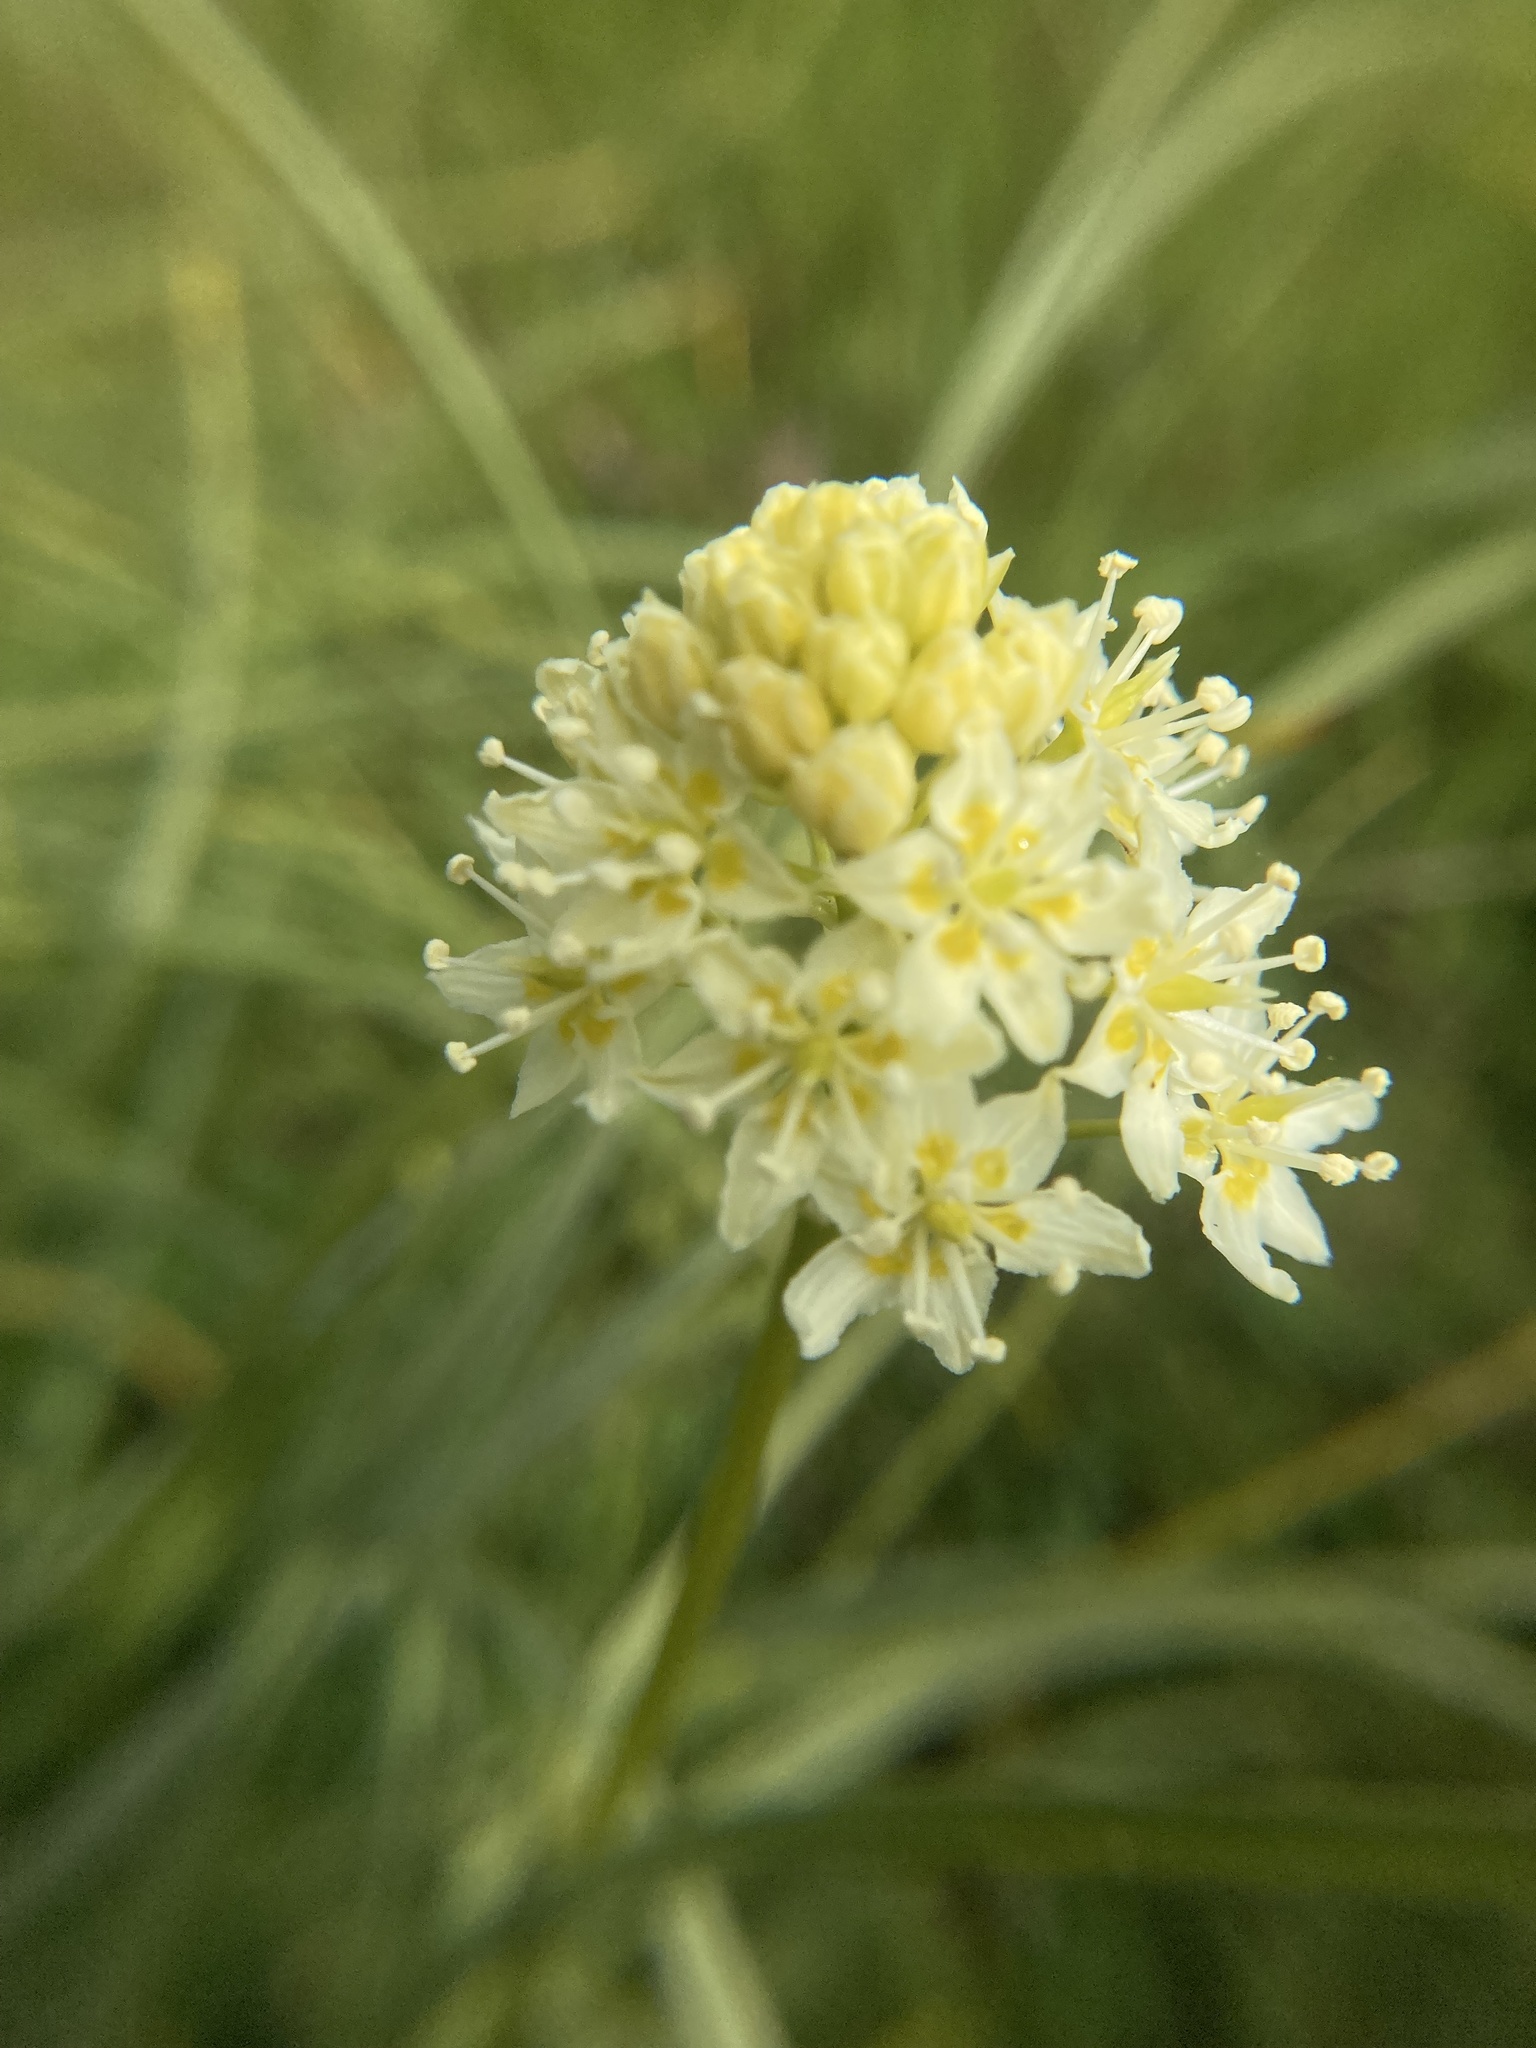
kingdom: Plantae
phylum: Tracheophyta
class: Liliopsida
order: Liliales
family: Melanthiaceae
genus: Toxicoscordion
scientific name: Toxicoscordion venenosum
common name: Meadow death camas
